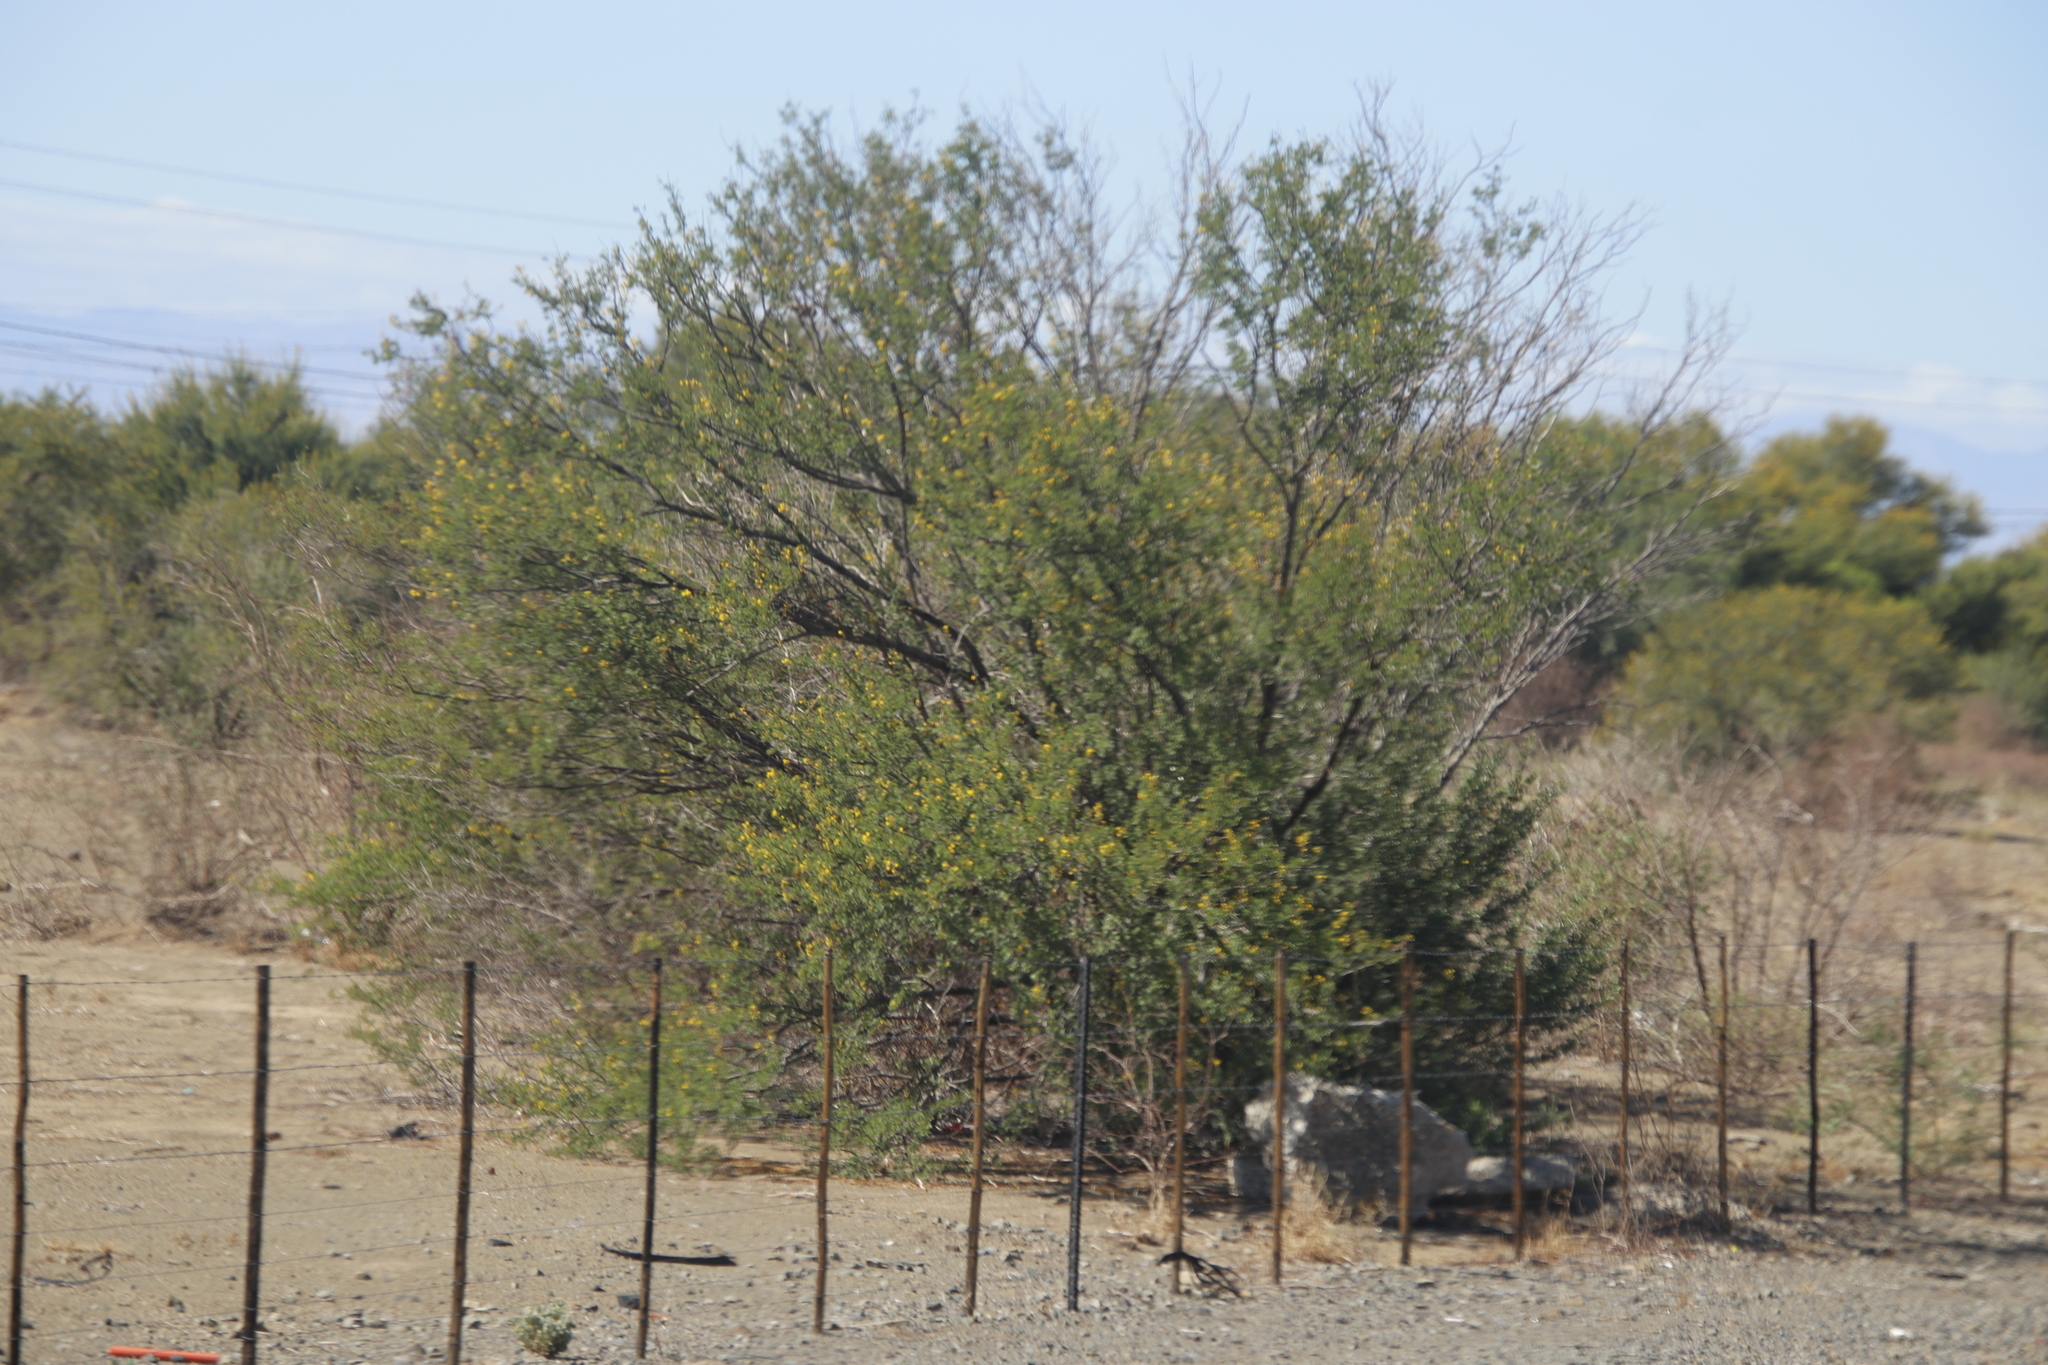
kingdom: Plantae
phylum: Tracheophyta
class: Magnoliopsida
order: Fabales
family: Fabaceae
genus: Vachellia
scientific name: Vachellia karroo
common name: Sweet thorn
